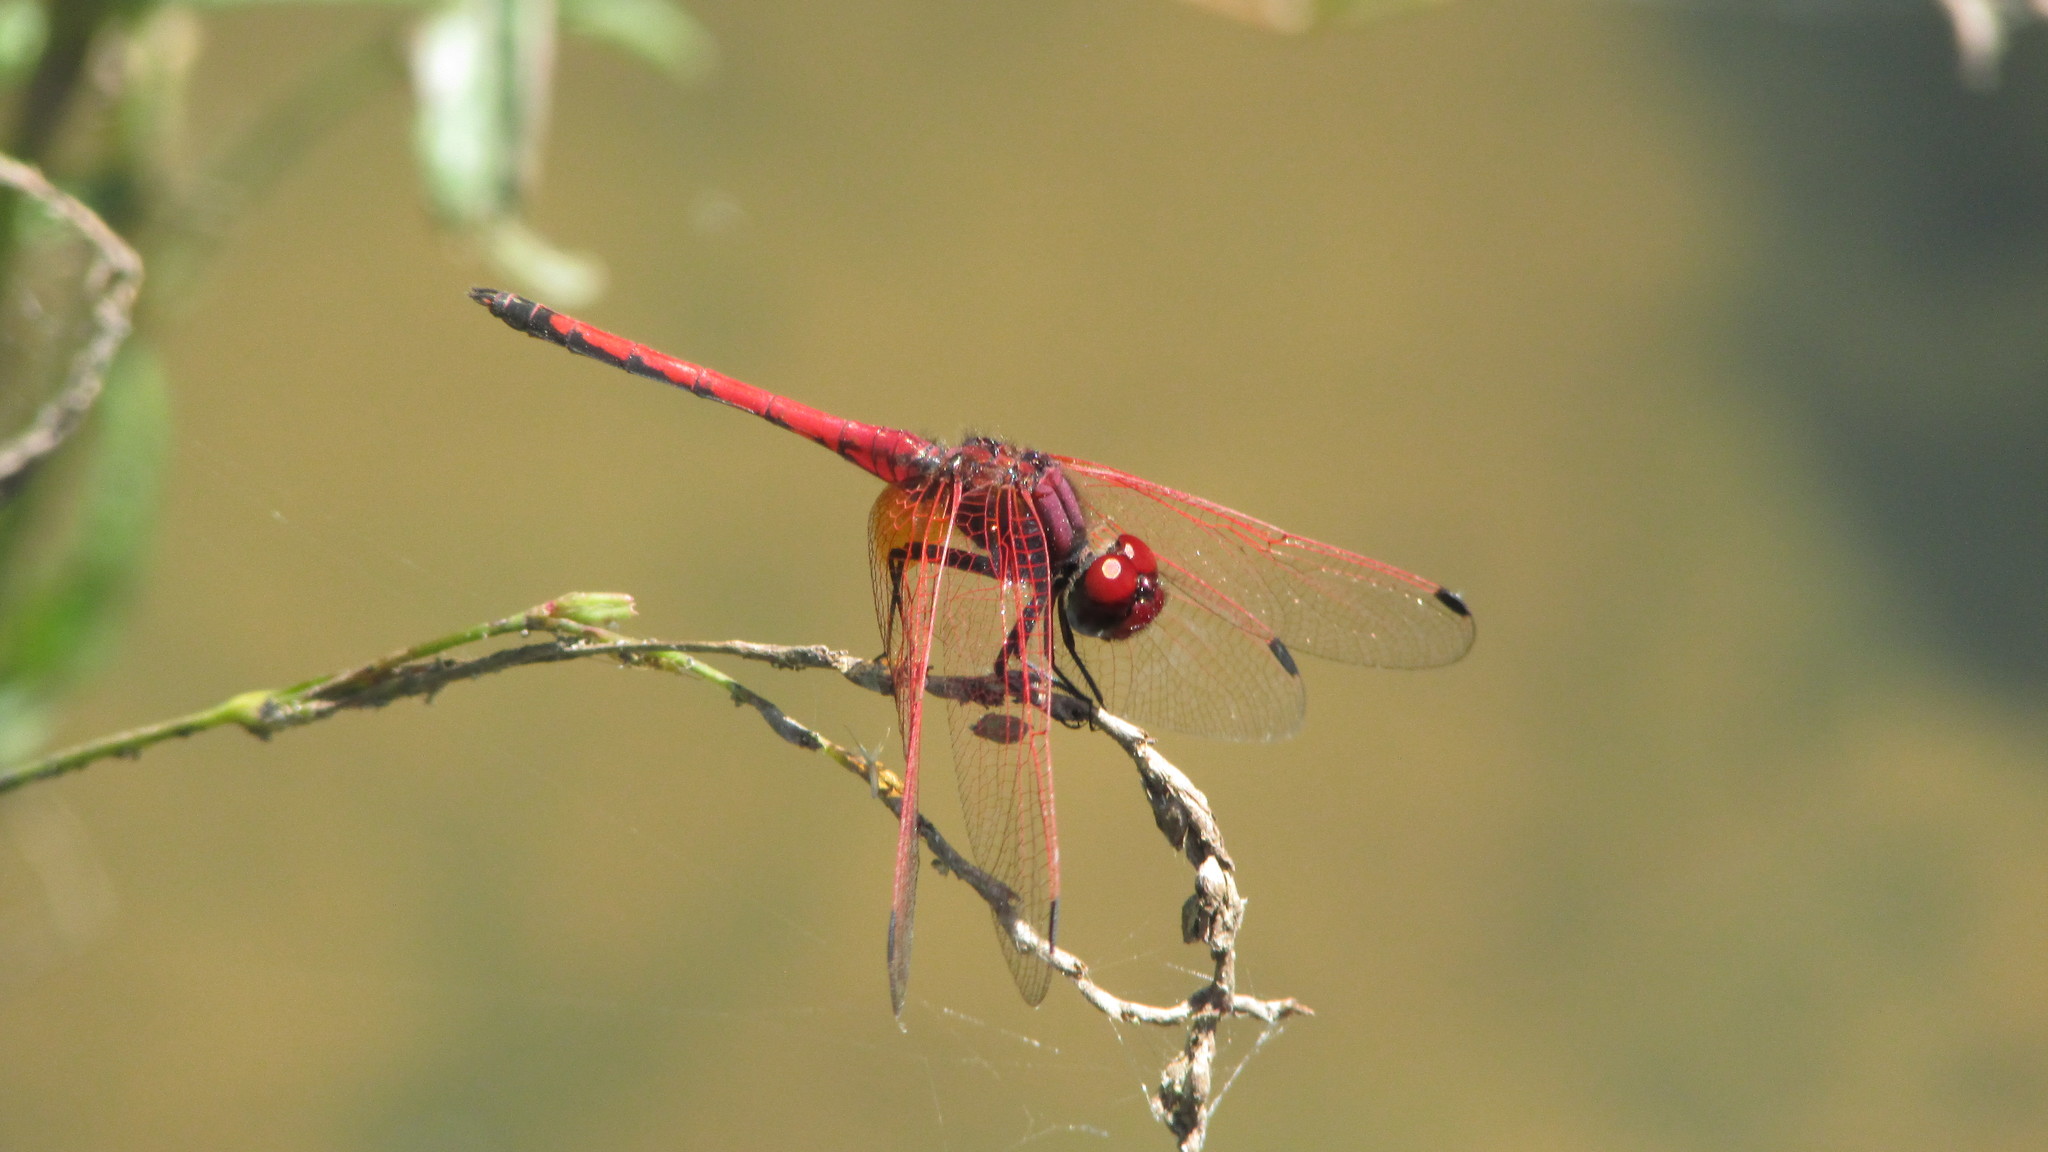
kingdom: Animalia
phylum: Arthropoda
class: Insecta
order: Odonata
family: Libellulidae
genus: Trithemis
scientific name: Trithemis arteriosa
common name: Red-veined dropwing
